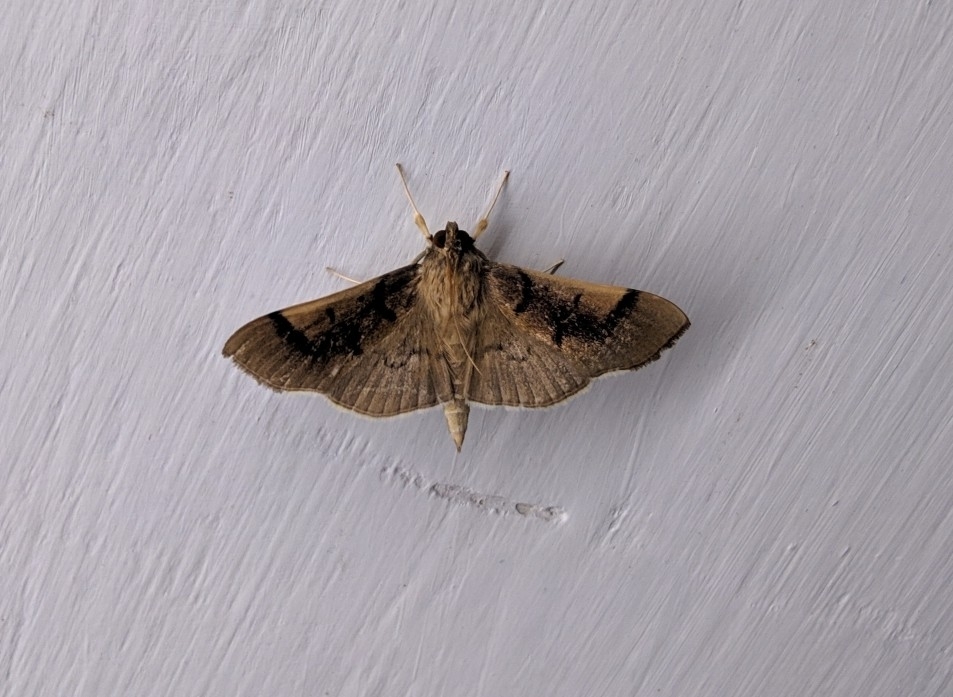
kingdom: Animalia
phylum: Arthropoda
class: Insecta
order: Lepidoptera
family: Crambidae
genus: Omiodes
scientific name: Omiodes
